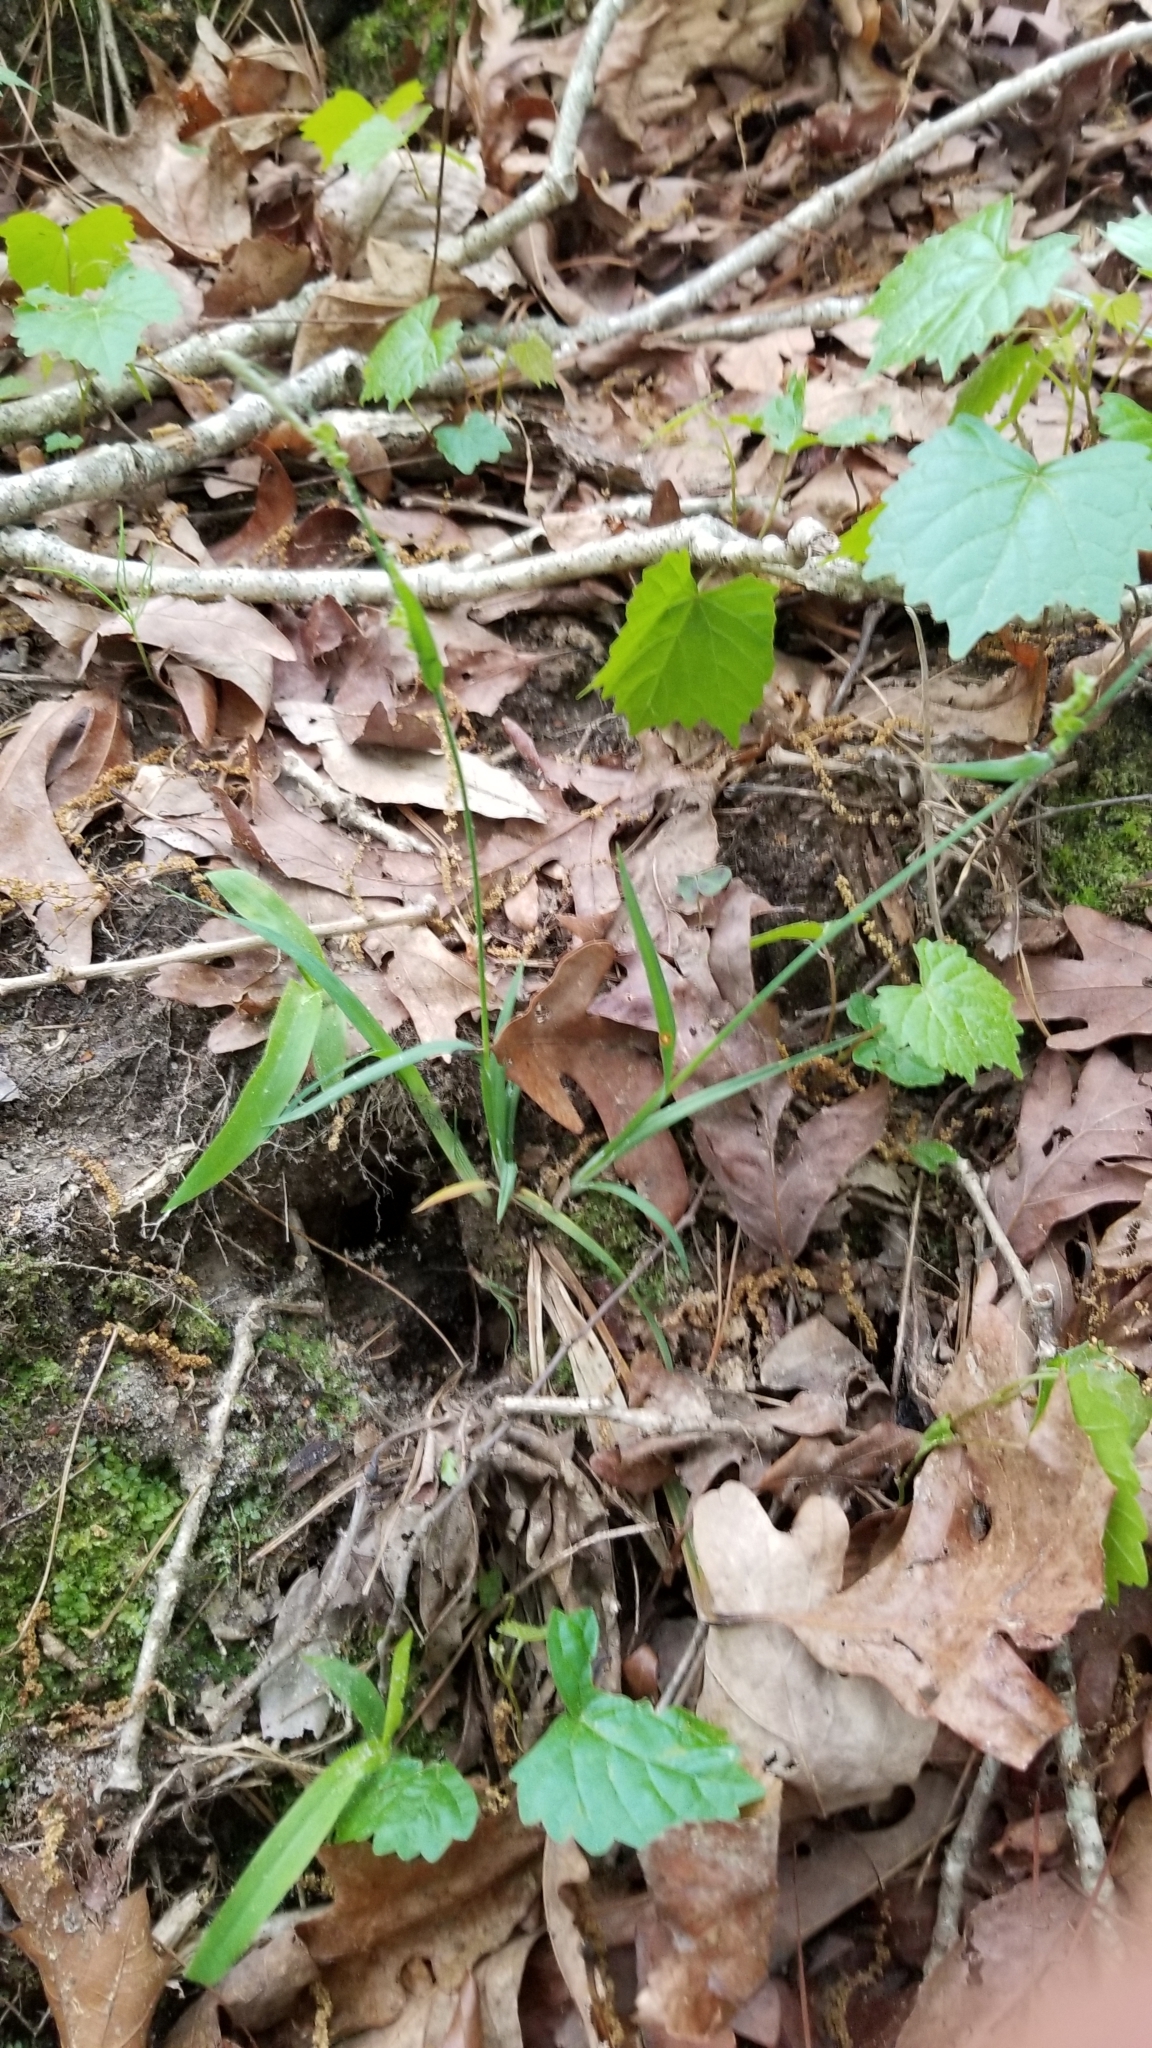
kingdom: Plantae
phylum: Tracheophyta
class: Liliopsida
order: Poales
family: Cyperaceae
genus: Carex
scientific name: Carex crebriflora
